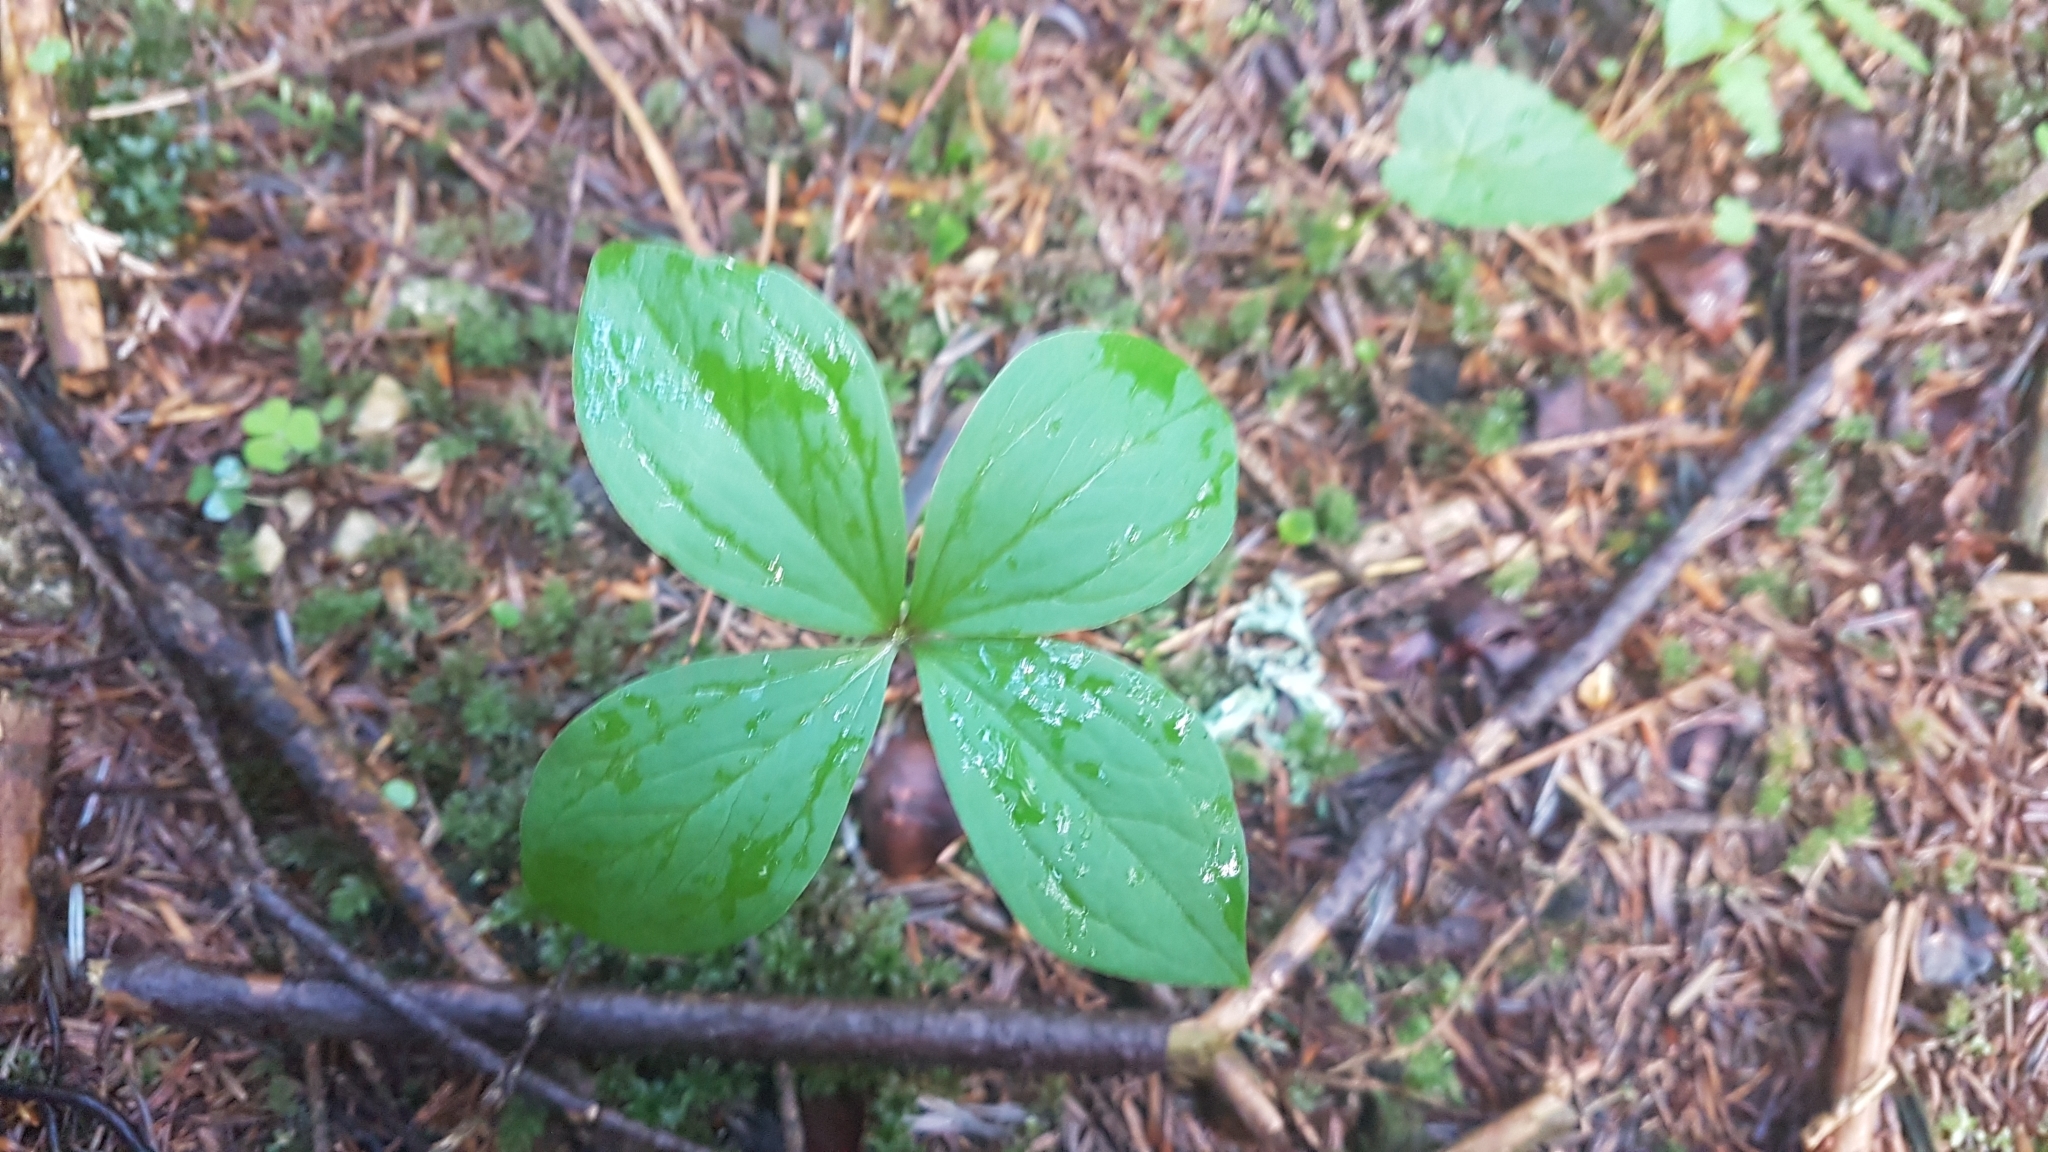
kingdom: Plantae
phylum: Tracheophyta
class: Liliopsida
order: Liliales
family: Melanthiaceae
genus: Paris
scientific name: Paris quadrifolia
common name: Herb-paris
